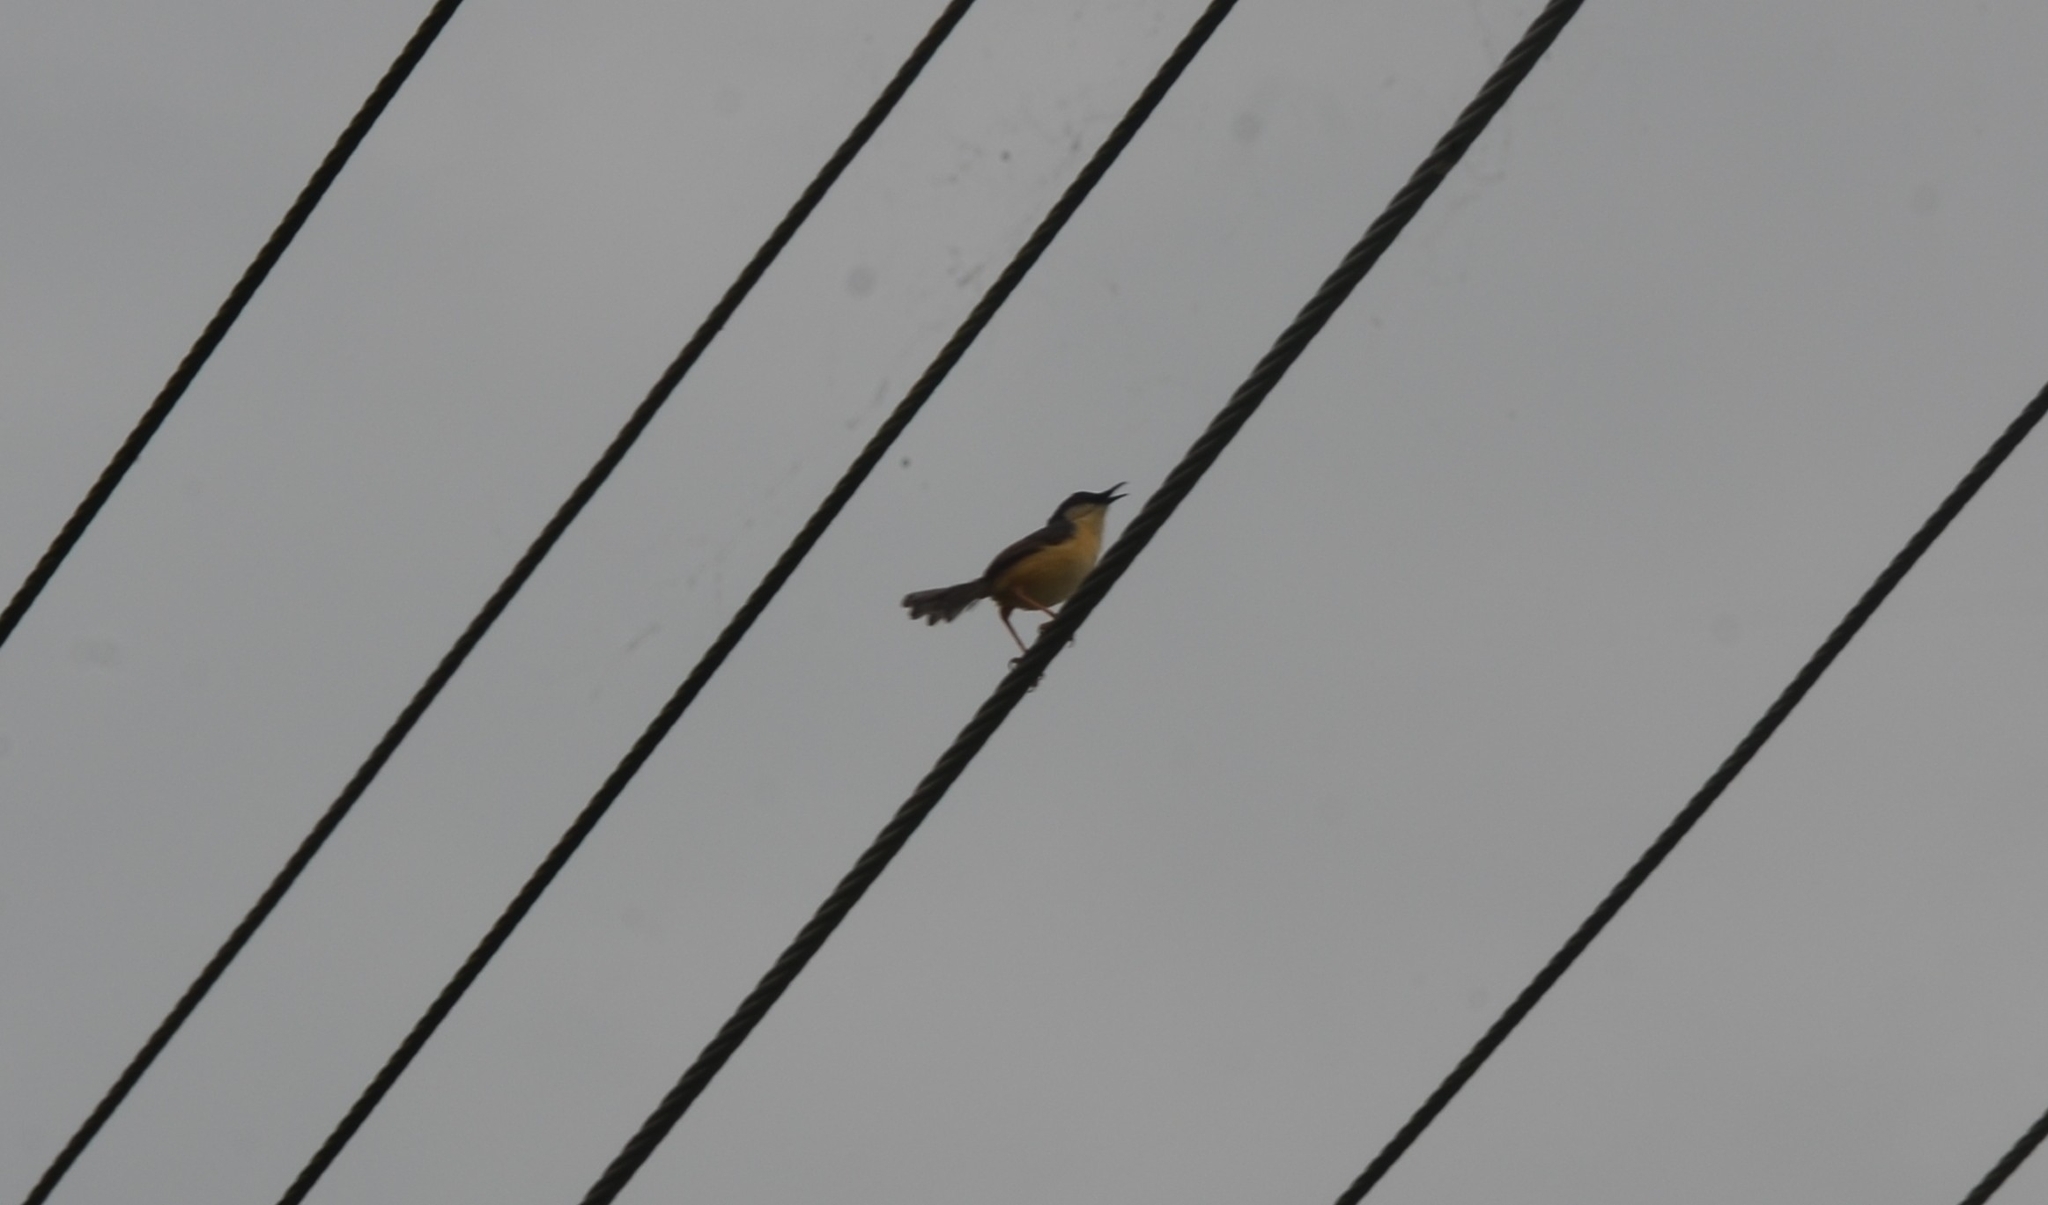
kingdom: Animalia
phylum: Chordata
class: Aves
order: Passeriformes
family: Cisticolidae
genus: Prinia
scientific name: Prinia socialis
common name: Ashy prinia
